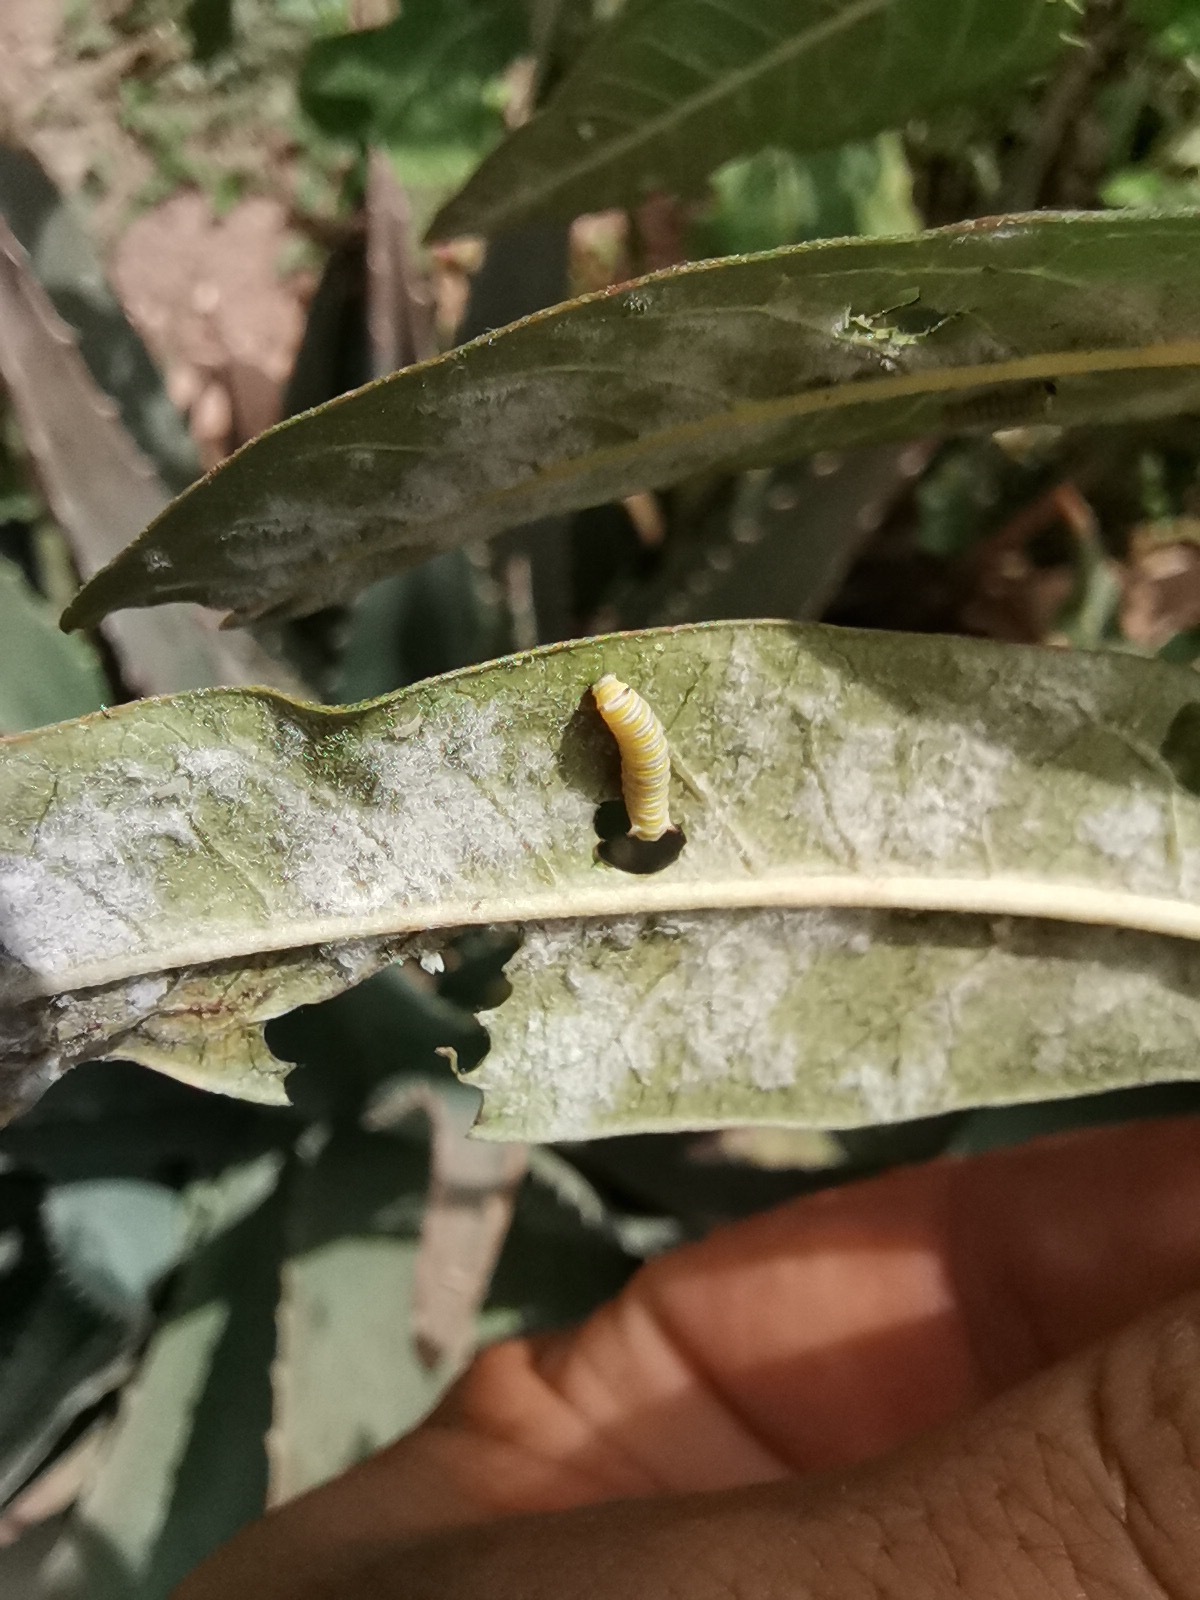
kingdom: Animalia
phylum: Arthropoda
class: Insecta
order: Lepidoptera
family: Nymphalidae
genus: Danaus
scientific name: Danaus plexippus
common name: Monarch
